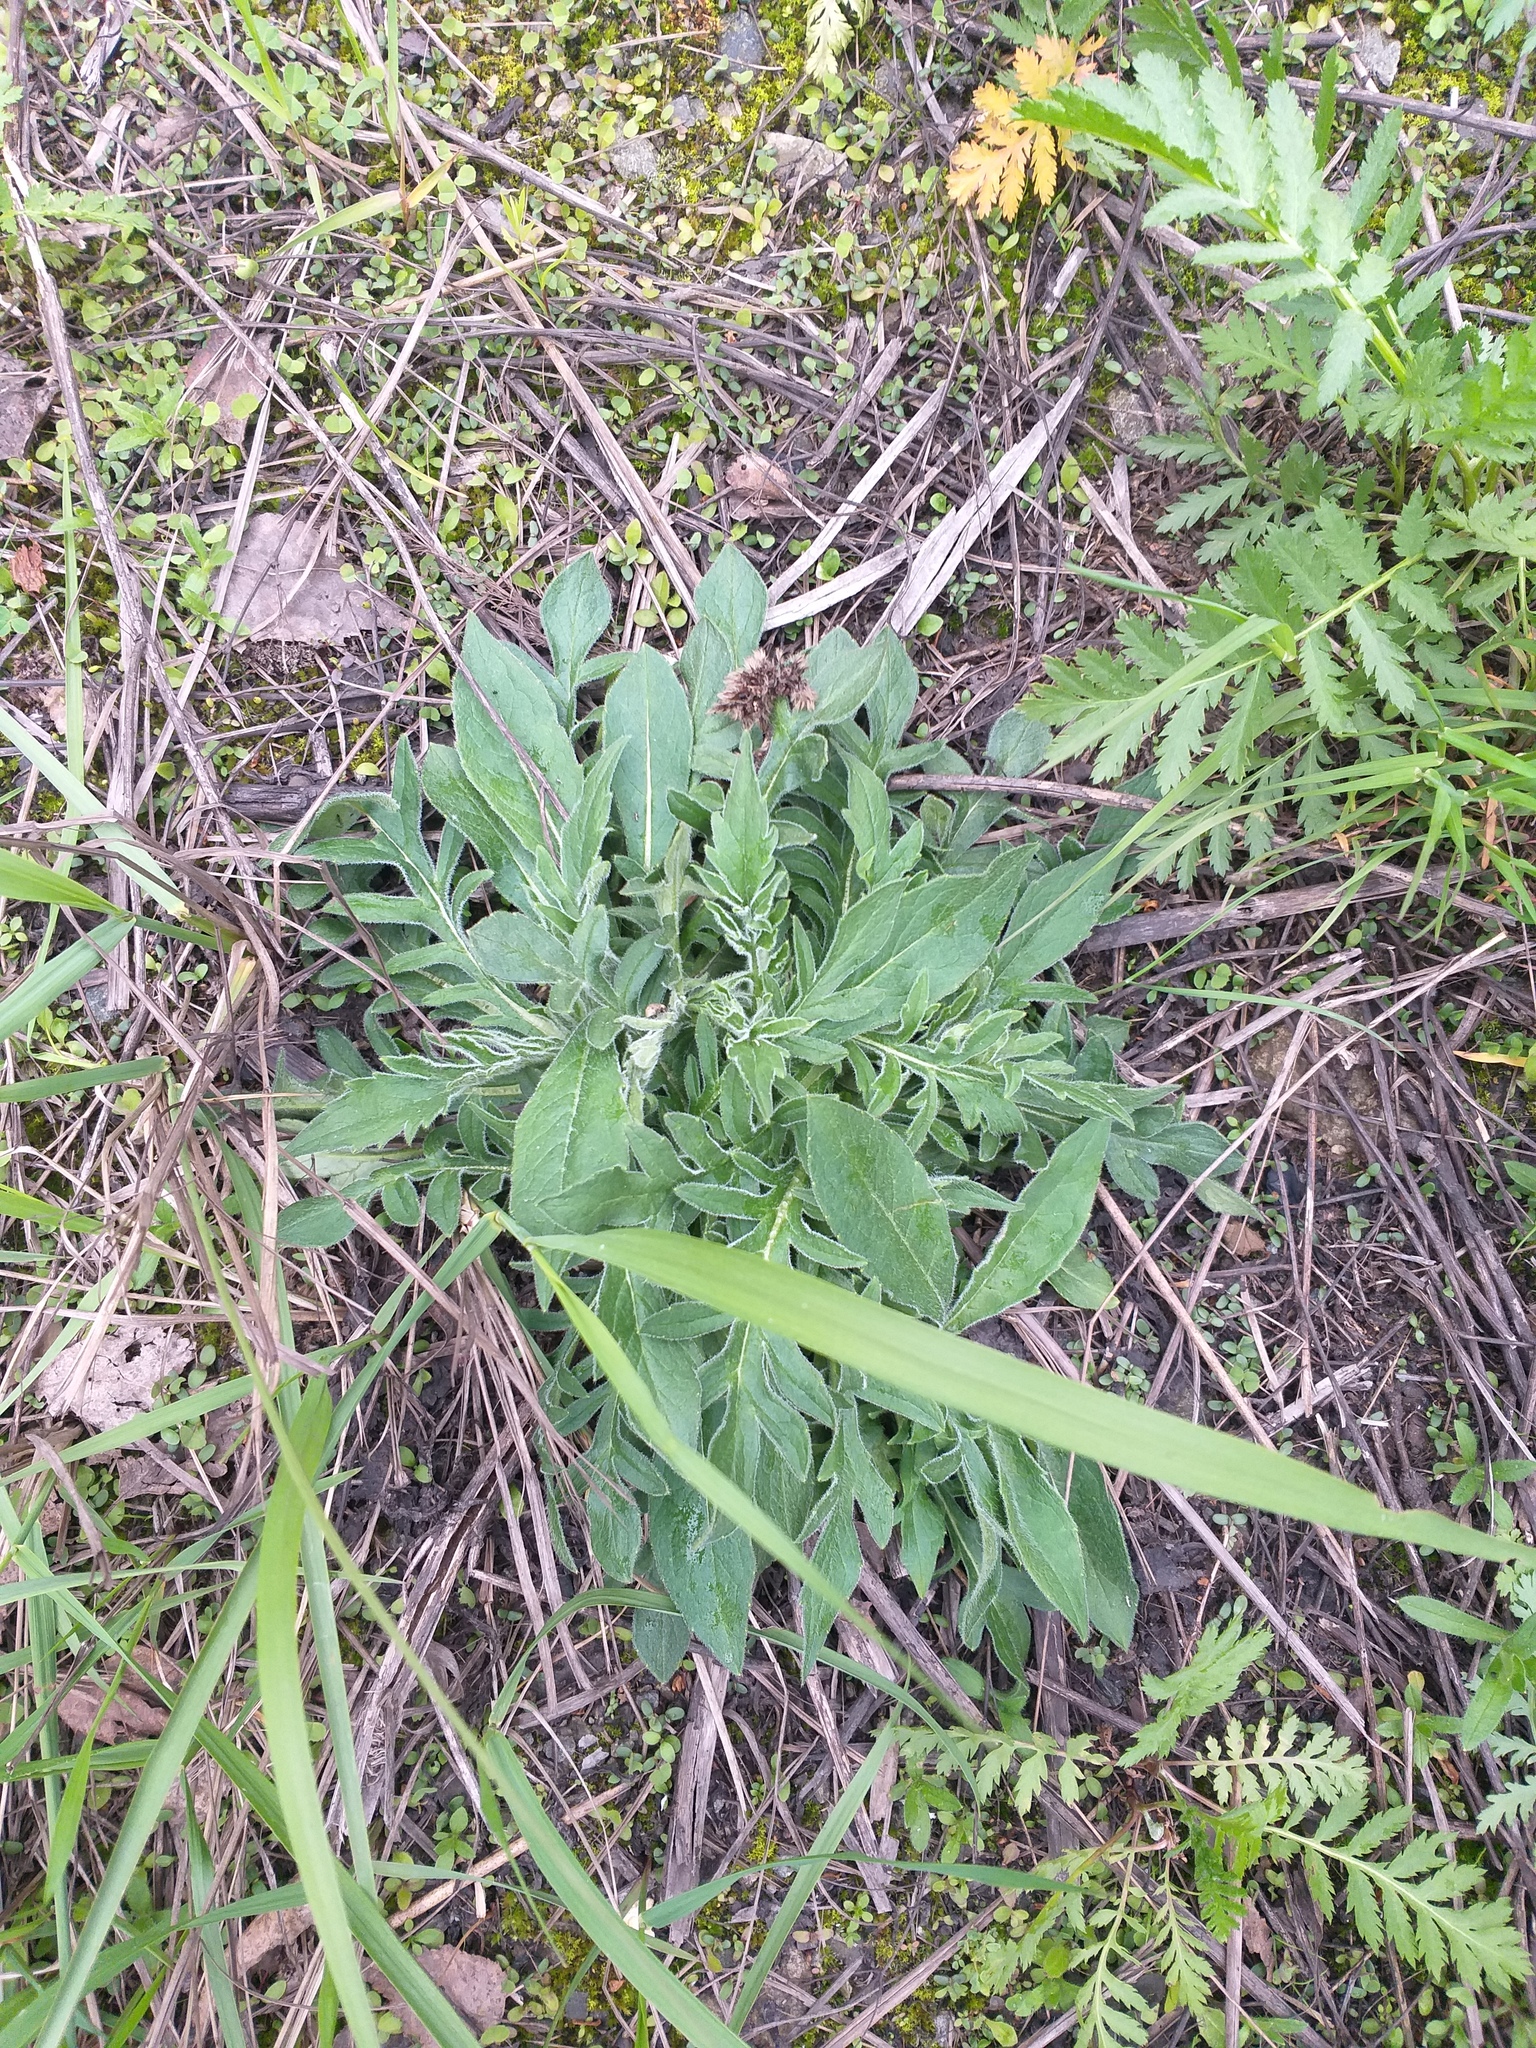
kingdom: Plantae
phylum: Tracheophyta
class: Magnoliopsida
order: Dipsacales
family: Caprifoliaceae
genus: Knautia
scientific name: Knautia arvensis
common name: Field scabiosa
